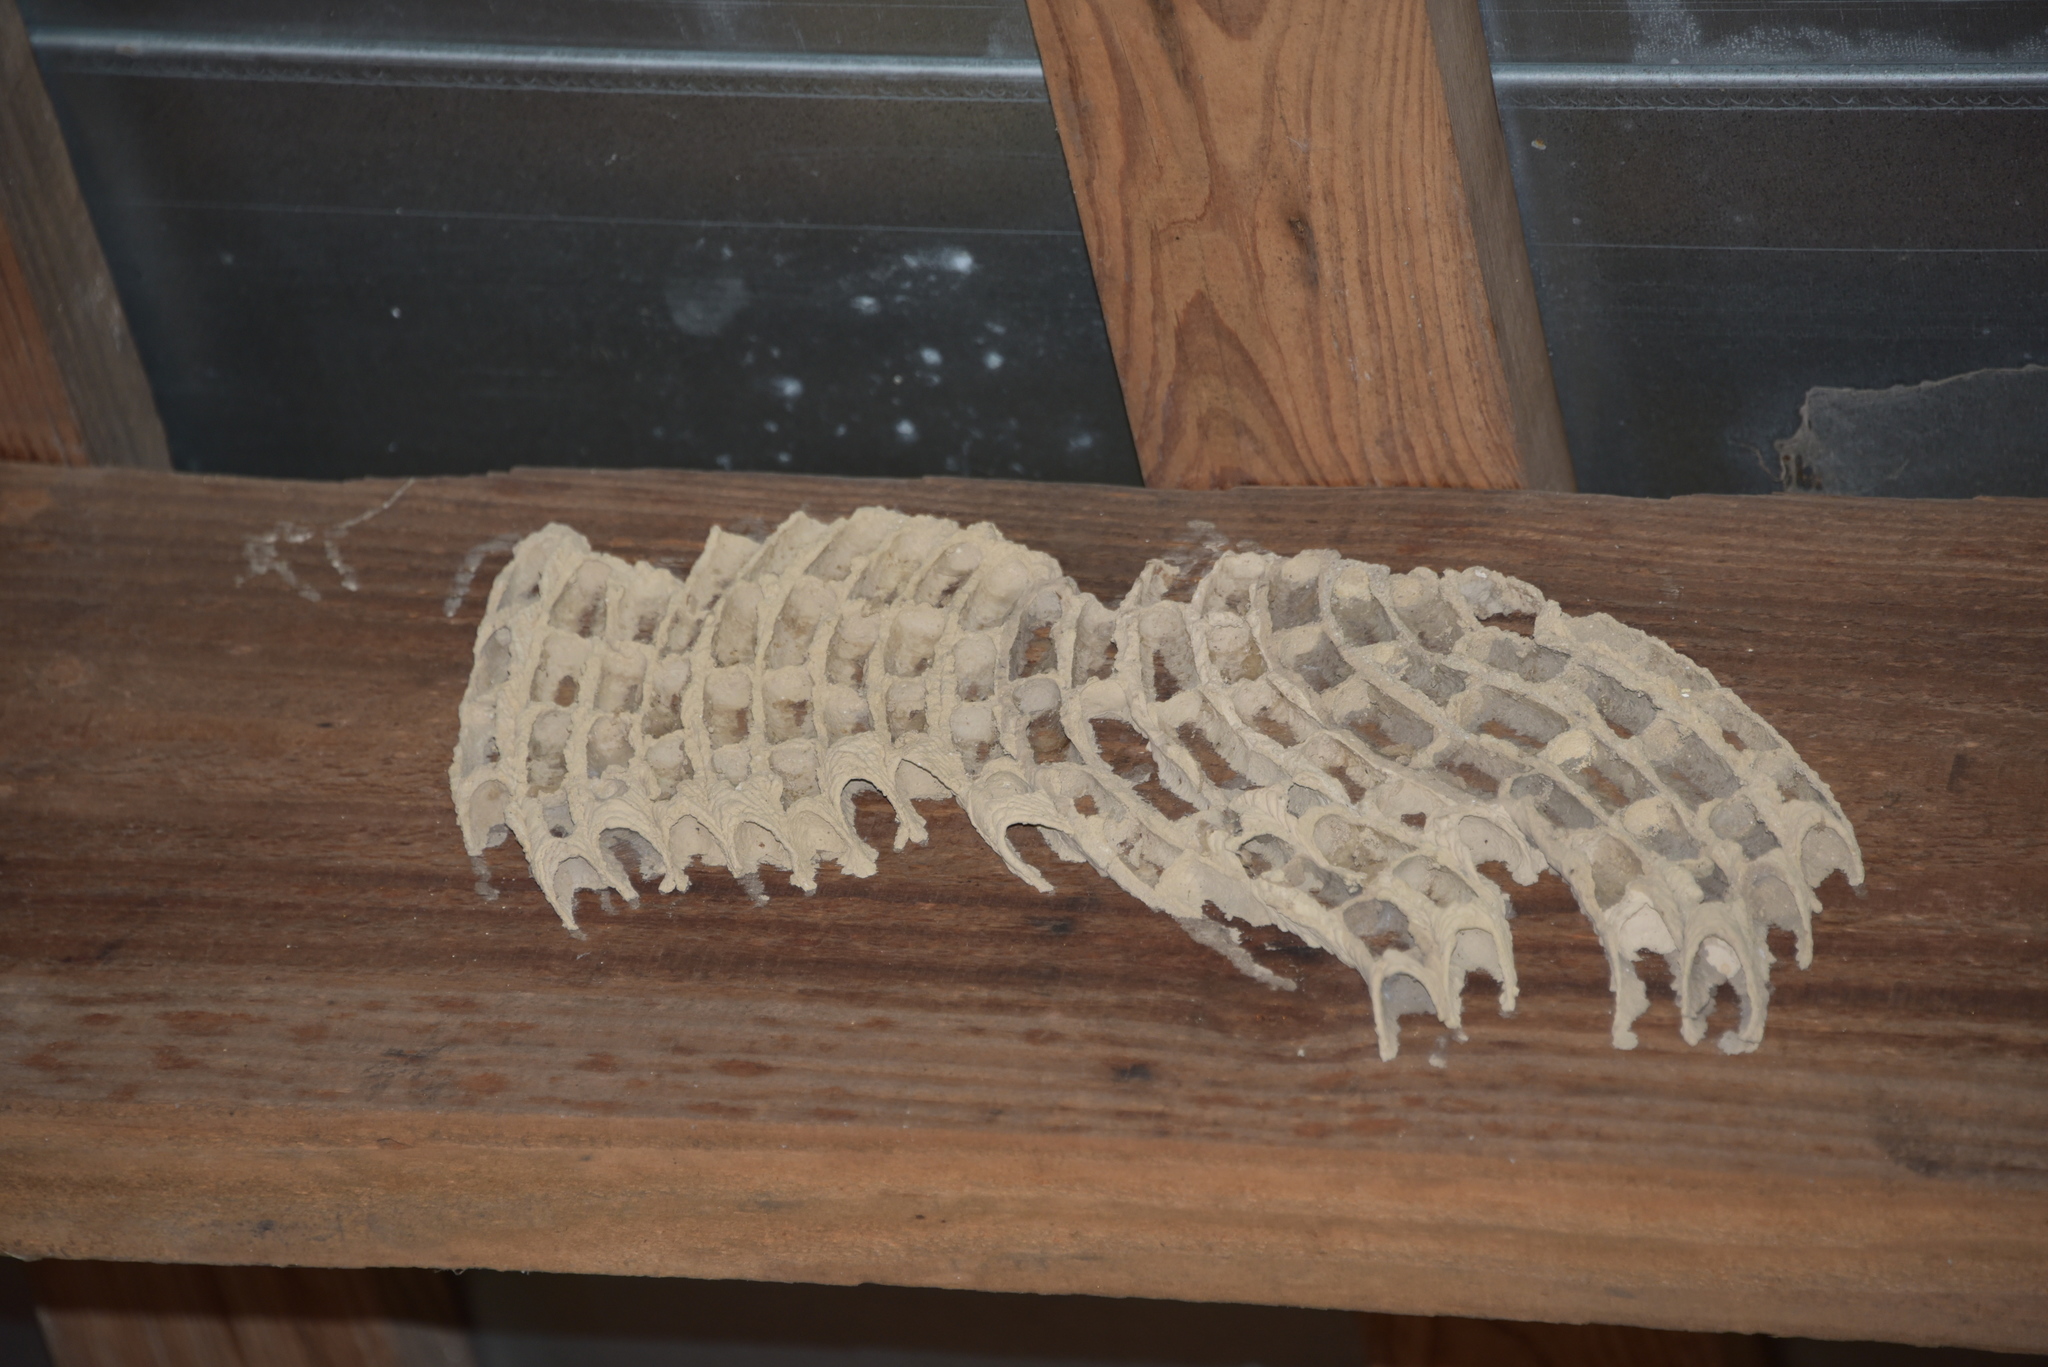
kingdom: Animalia
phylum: Arthropoda
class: Insecta
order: Hymenoptera
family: Crabronidae
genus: Trypoxylon
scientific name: Trypoxylon politum
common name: Organ-pipe mud-dauber wasp
